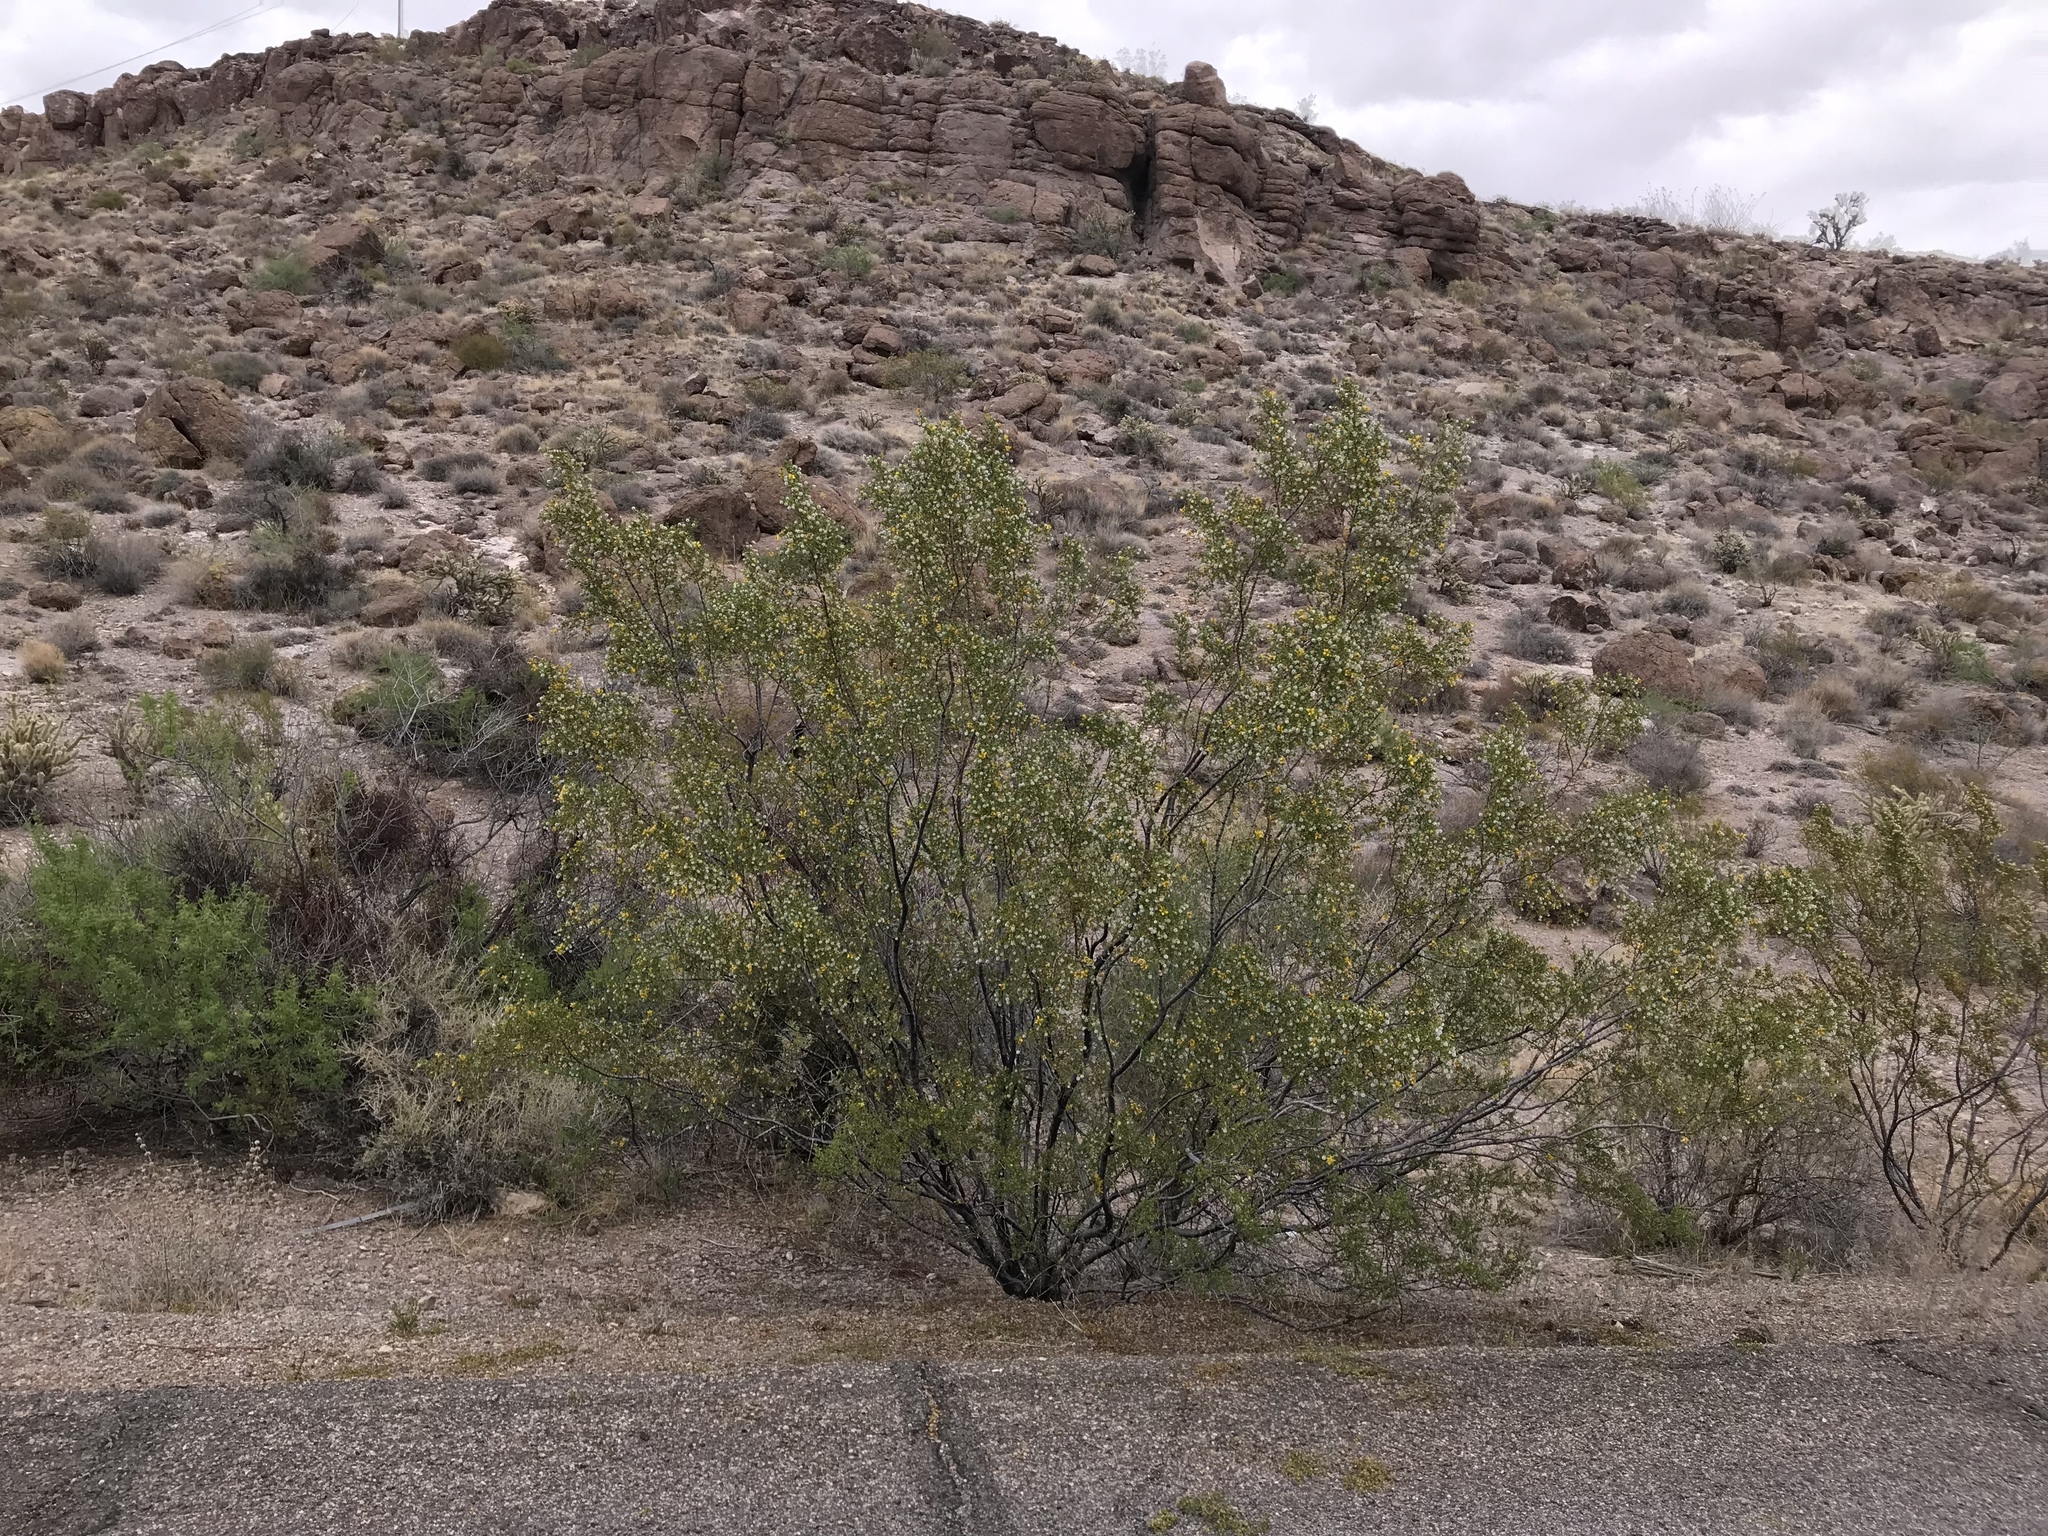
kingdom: Plantae
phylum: Tracheophyta
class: Magnoliopsida
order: Zygophyllales
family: Zygophyllaceae
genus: Larrea
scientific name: Larrea tridentata
